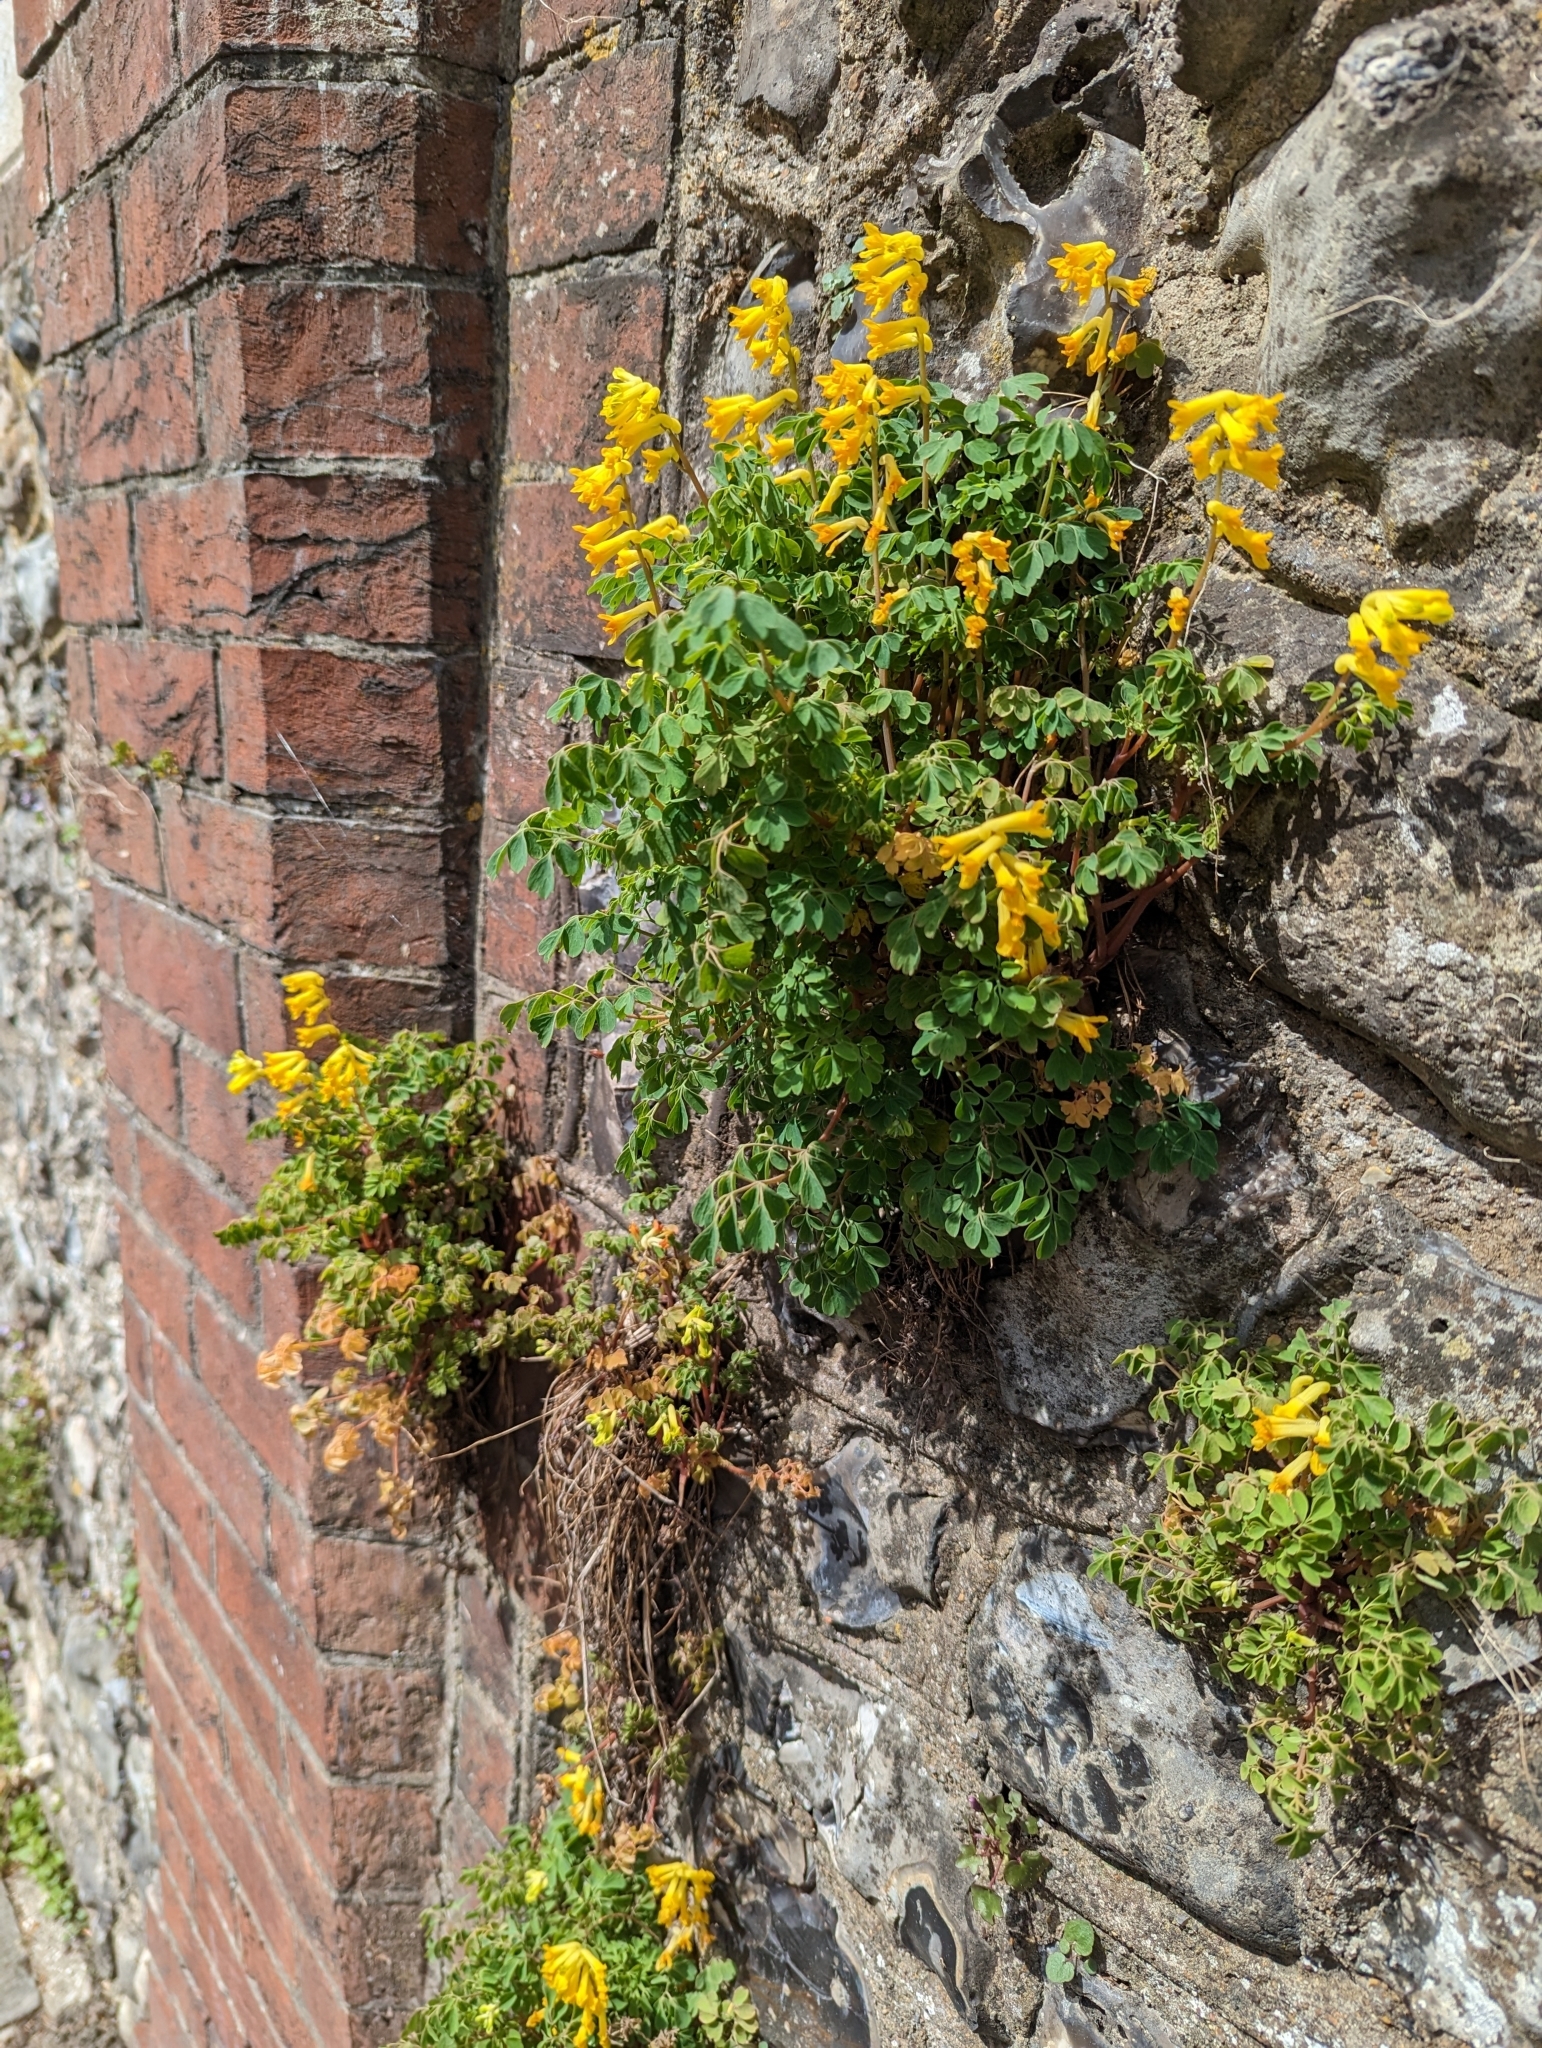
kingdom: Plantae
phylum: Tracheophyta
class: Magnoliopsida
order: Ranunculales
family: Papaveraceae
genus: Pseudofumaria
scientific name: Pseudofumaria lutea
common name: Yellow corydalis
